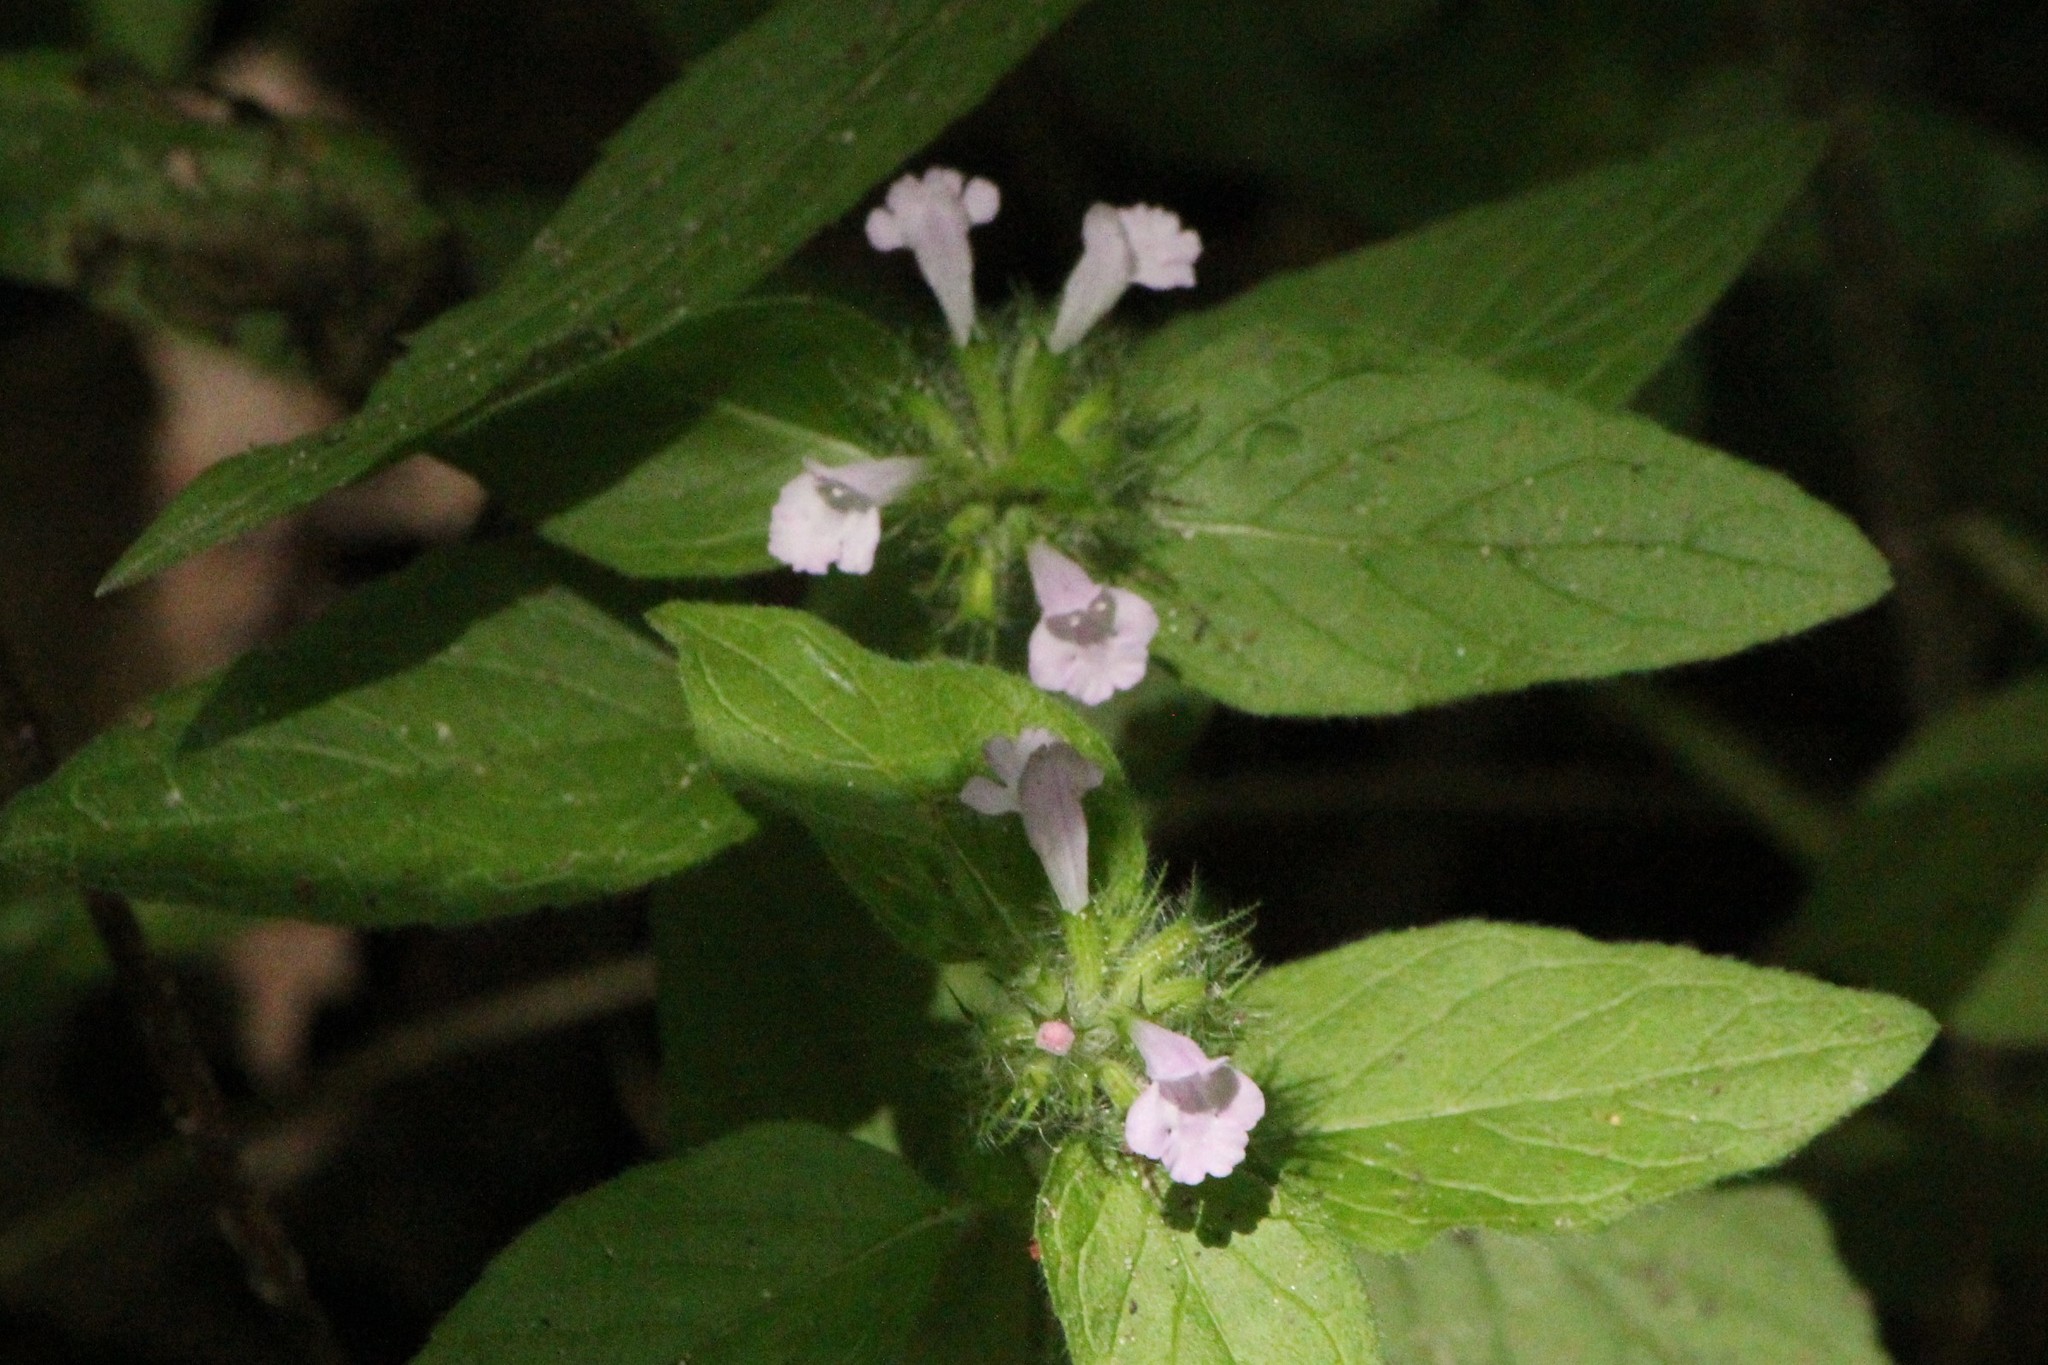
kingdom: Plantae
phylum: Tracheophyta
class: Magnoliopsida
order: Lamiales
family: Lamiaceae
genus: Clinopodium
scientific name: Clinopodium vulgare
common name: Wild basil
